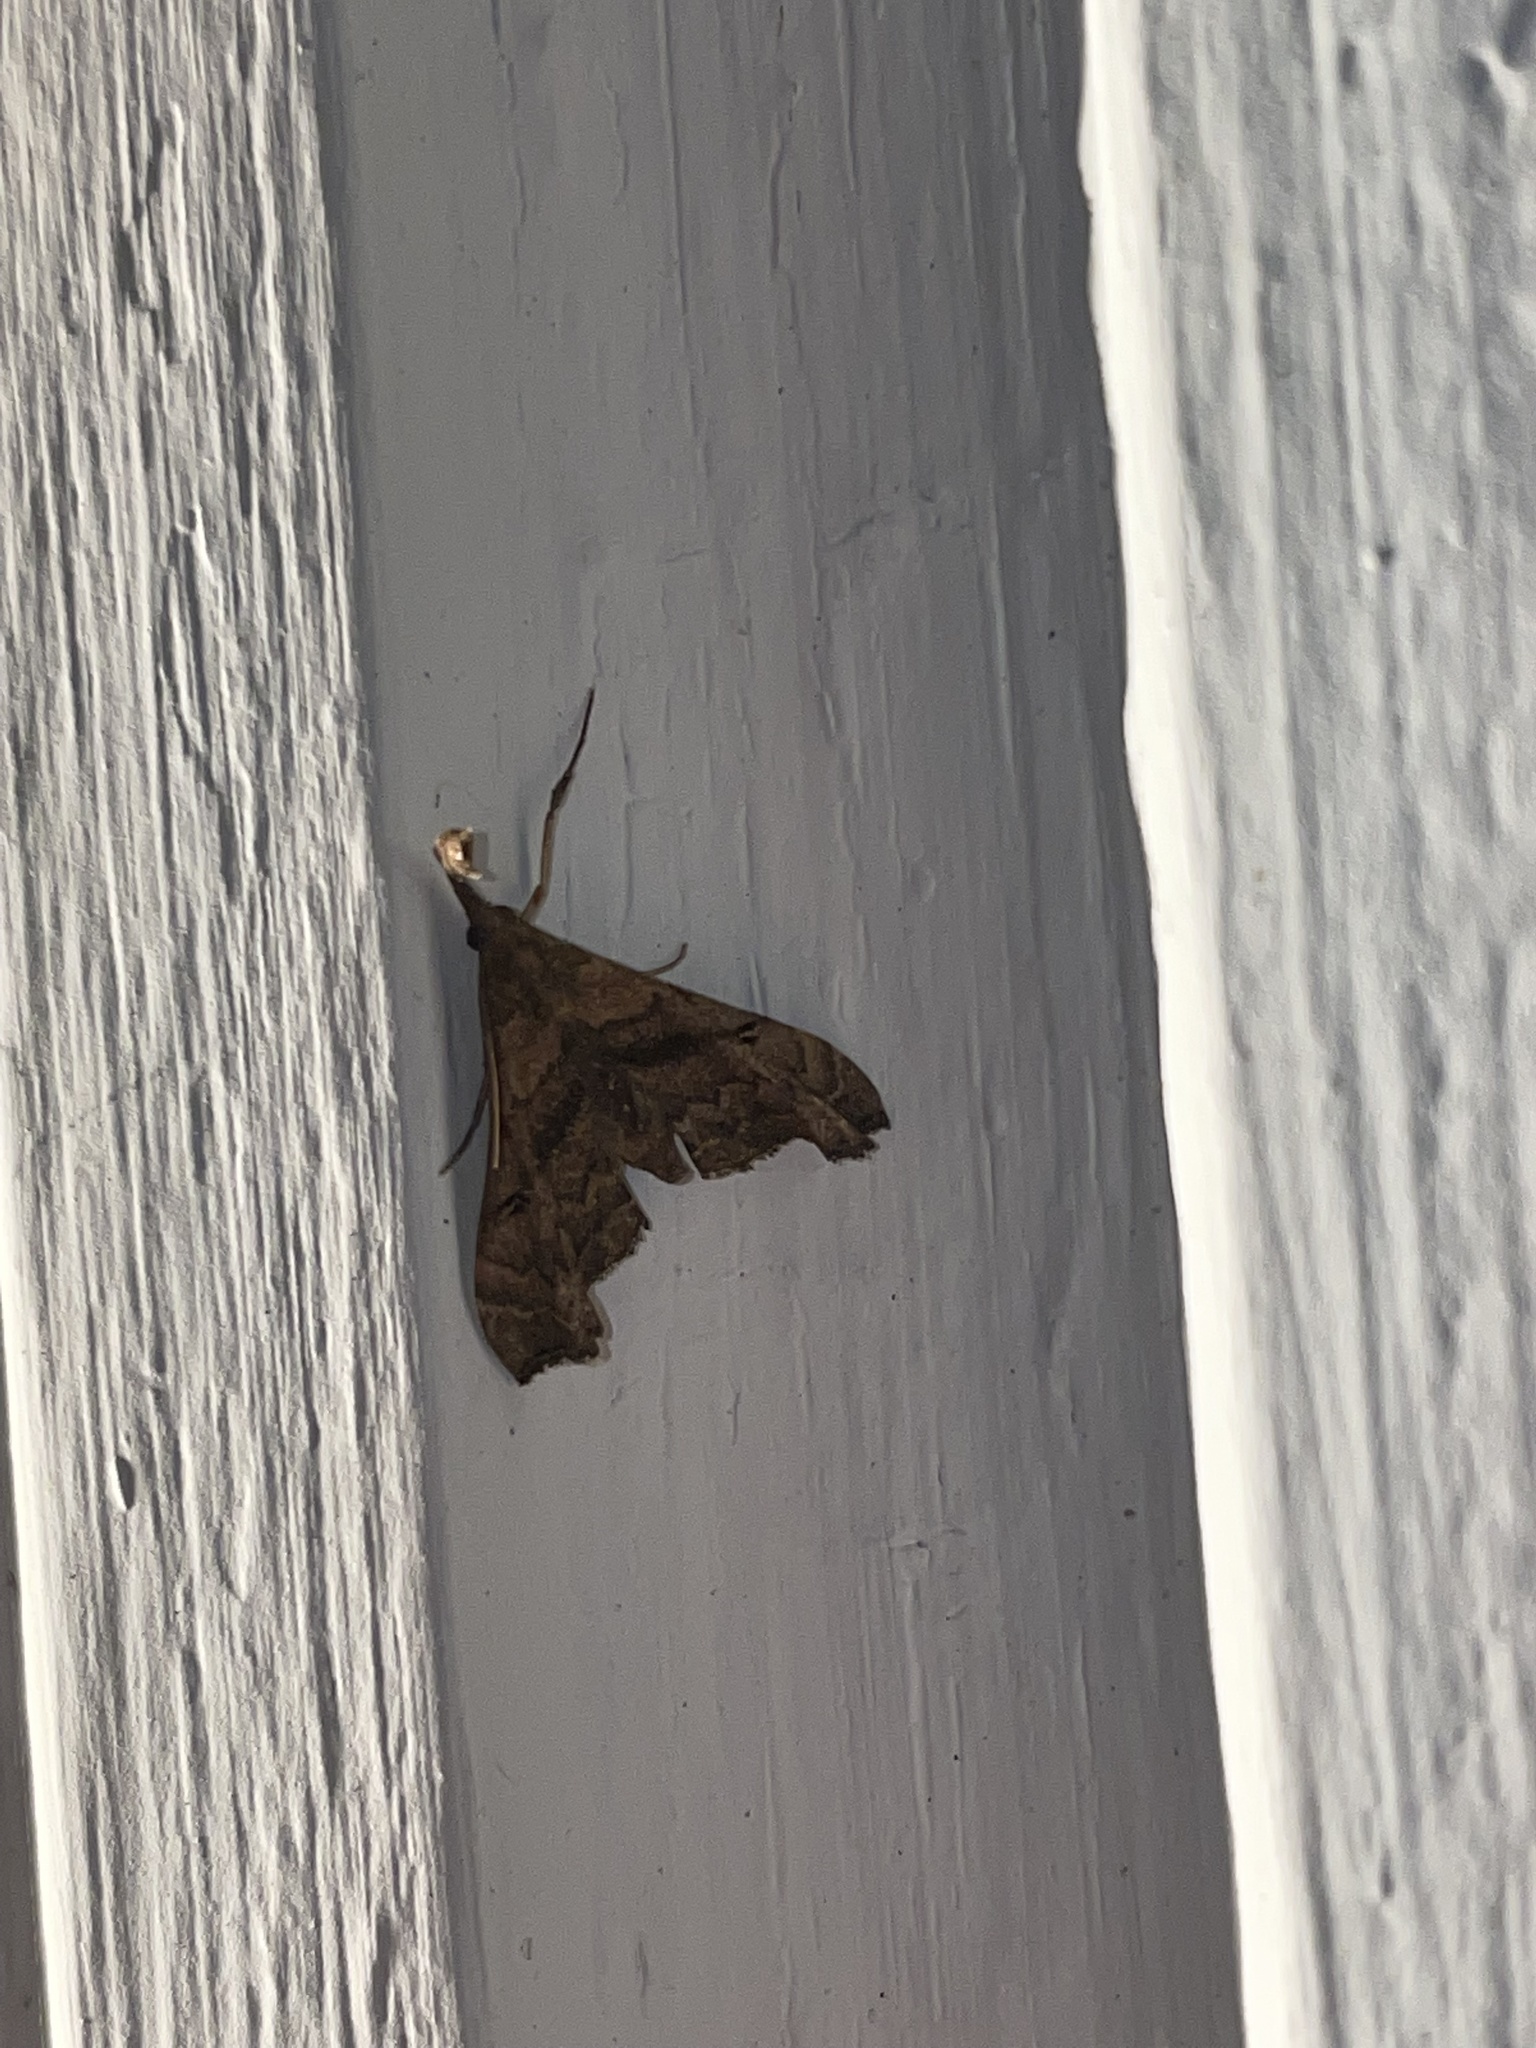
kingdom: Animalia
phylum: Arthropoda
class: Insecta
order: Lepidoptera
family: Erebidae
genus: Palthis
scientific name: Palthis asopialis
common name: Faint-spotted palthis moth
